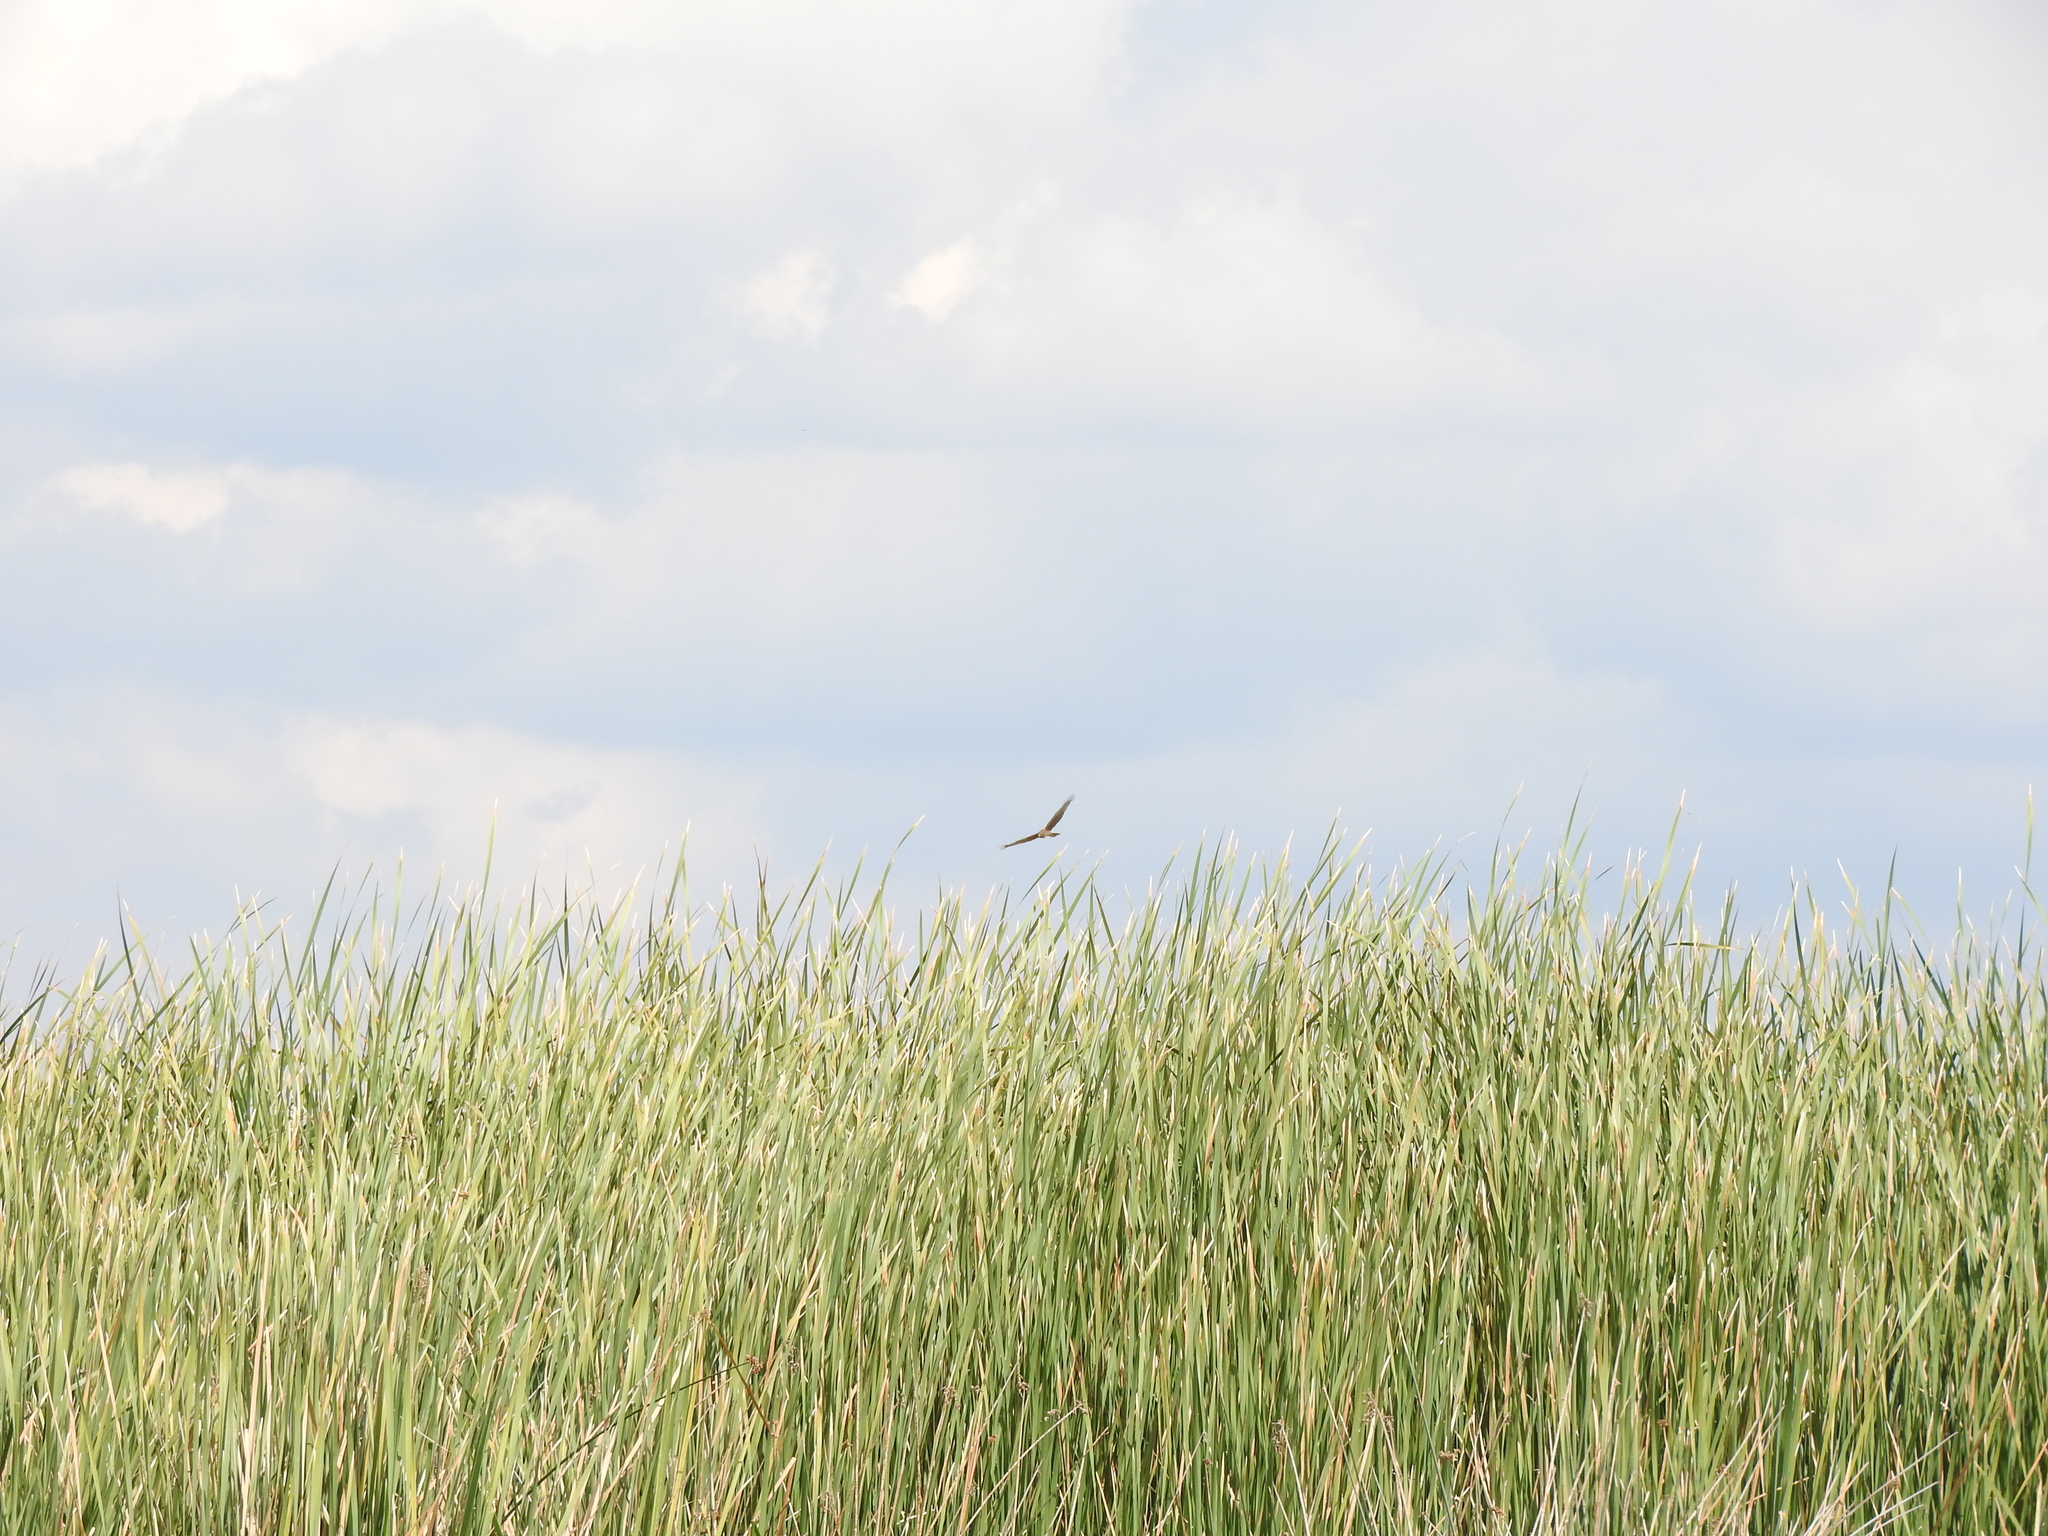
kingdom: Animalia
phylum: Chordata
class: Aves
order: Accipitriformes
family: Accipitridae
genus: Circus
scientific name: Circus cyaneus
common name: Hen harrier
